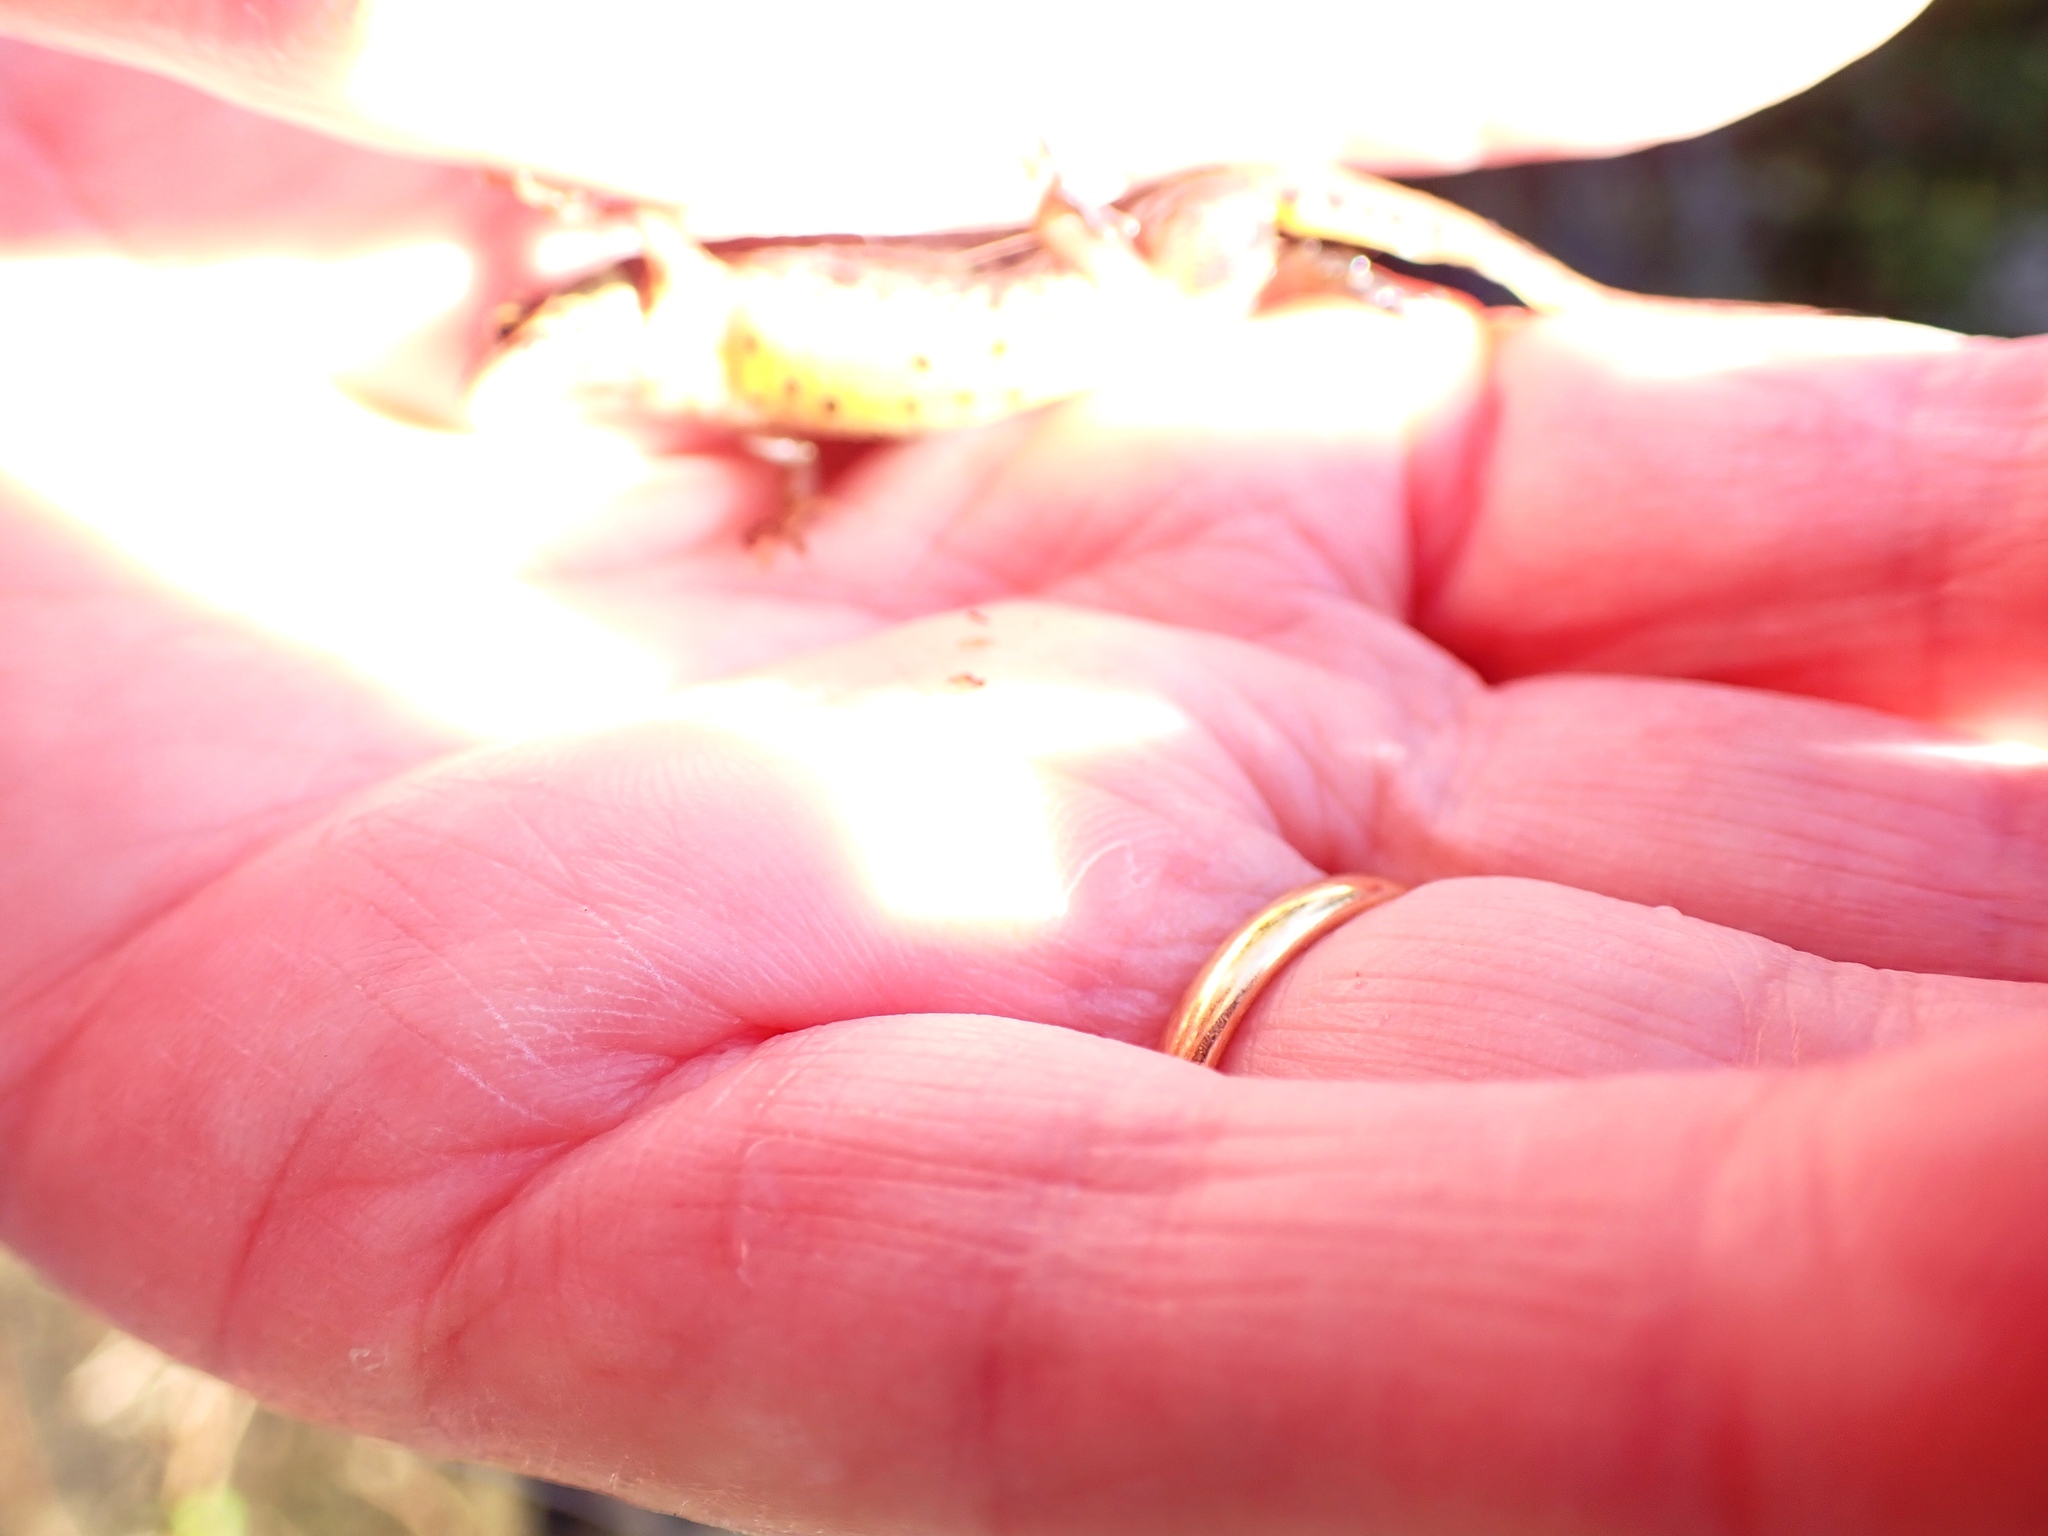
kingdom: Animalia
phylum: Chordata
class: Amphibia
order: Caudata
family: Salamandridae
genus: Lissotriton
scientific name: Lissotriton helveticus
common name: Palmate newt
